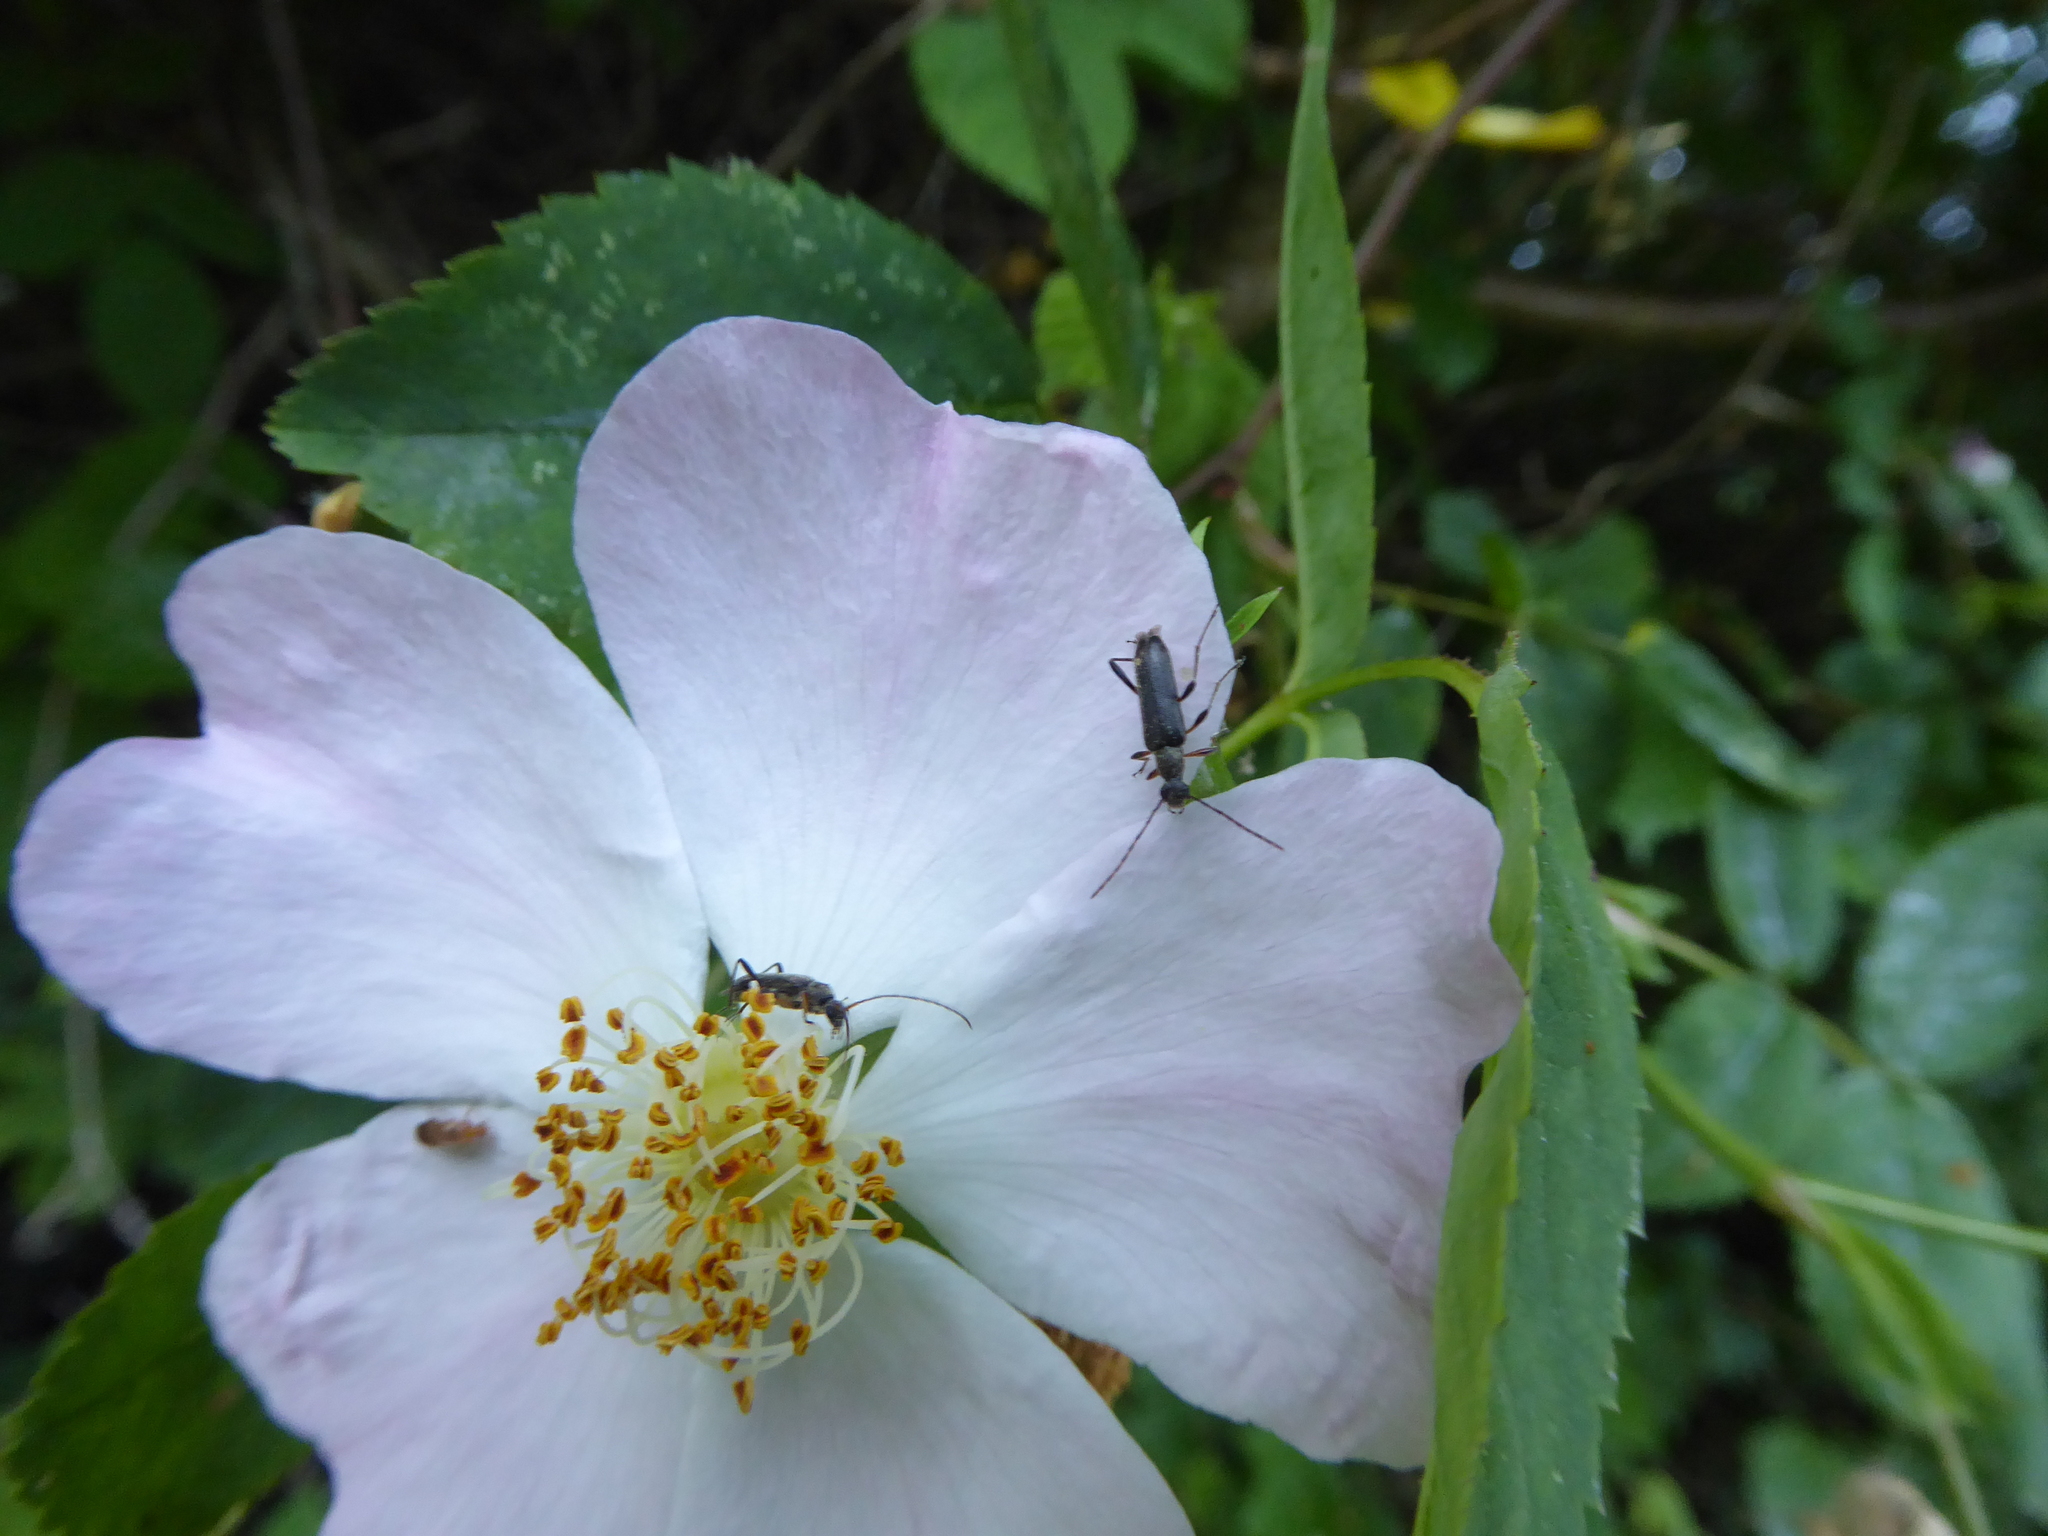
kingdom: Animalia
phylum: Arthropoda
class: Insecta
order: Coleoptera
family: Cerambycidae
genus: Grammoptera
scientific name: Grammoptera ruficornis
